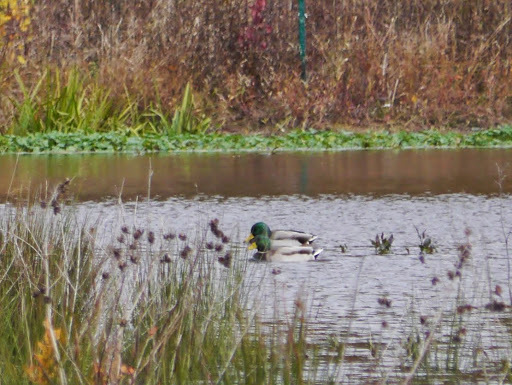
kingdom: Animalia
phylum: Chordata
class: Aves
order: Anseriformes
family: Anatidae
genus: Anas
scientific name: Anas platyrhynchos
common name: Mallard
